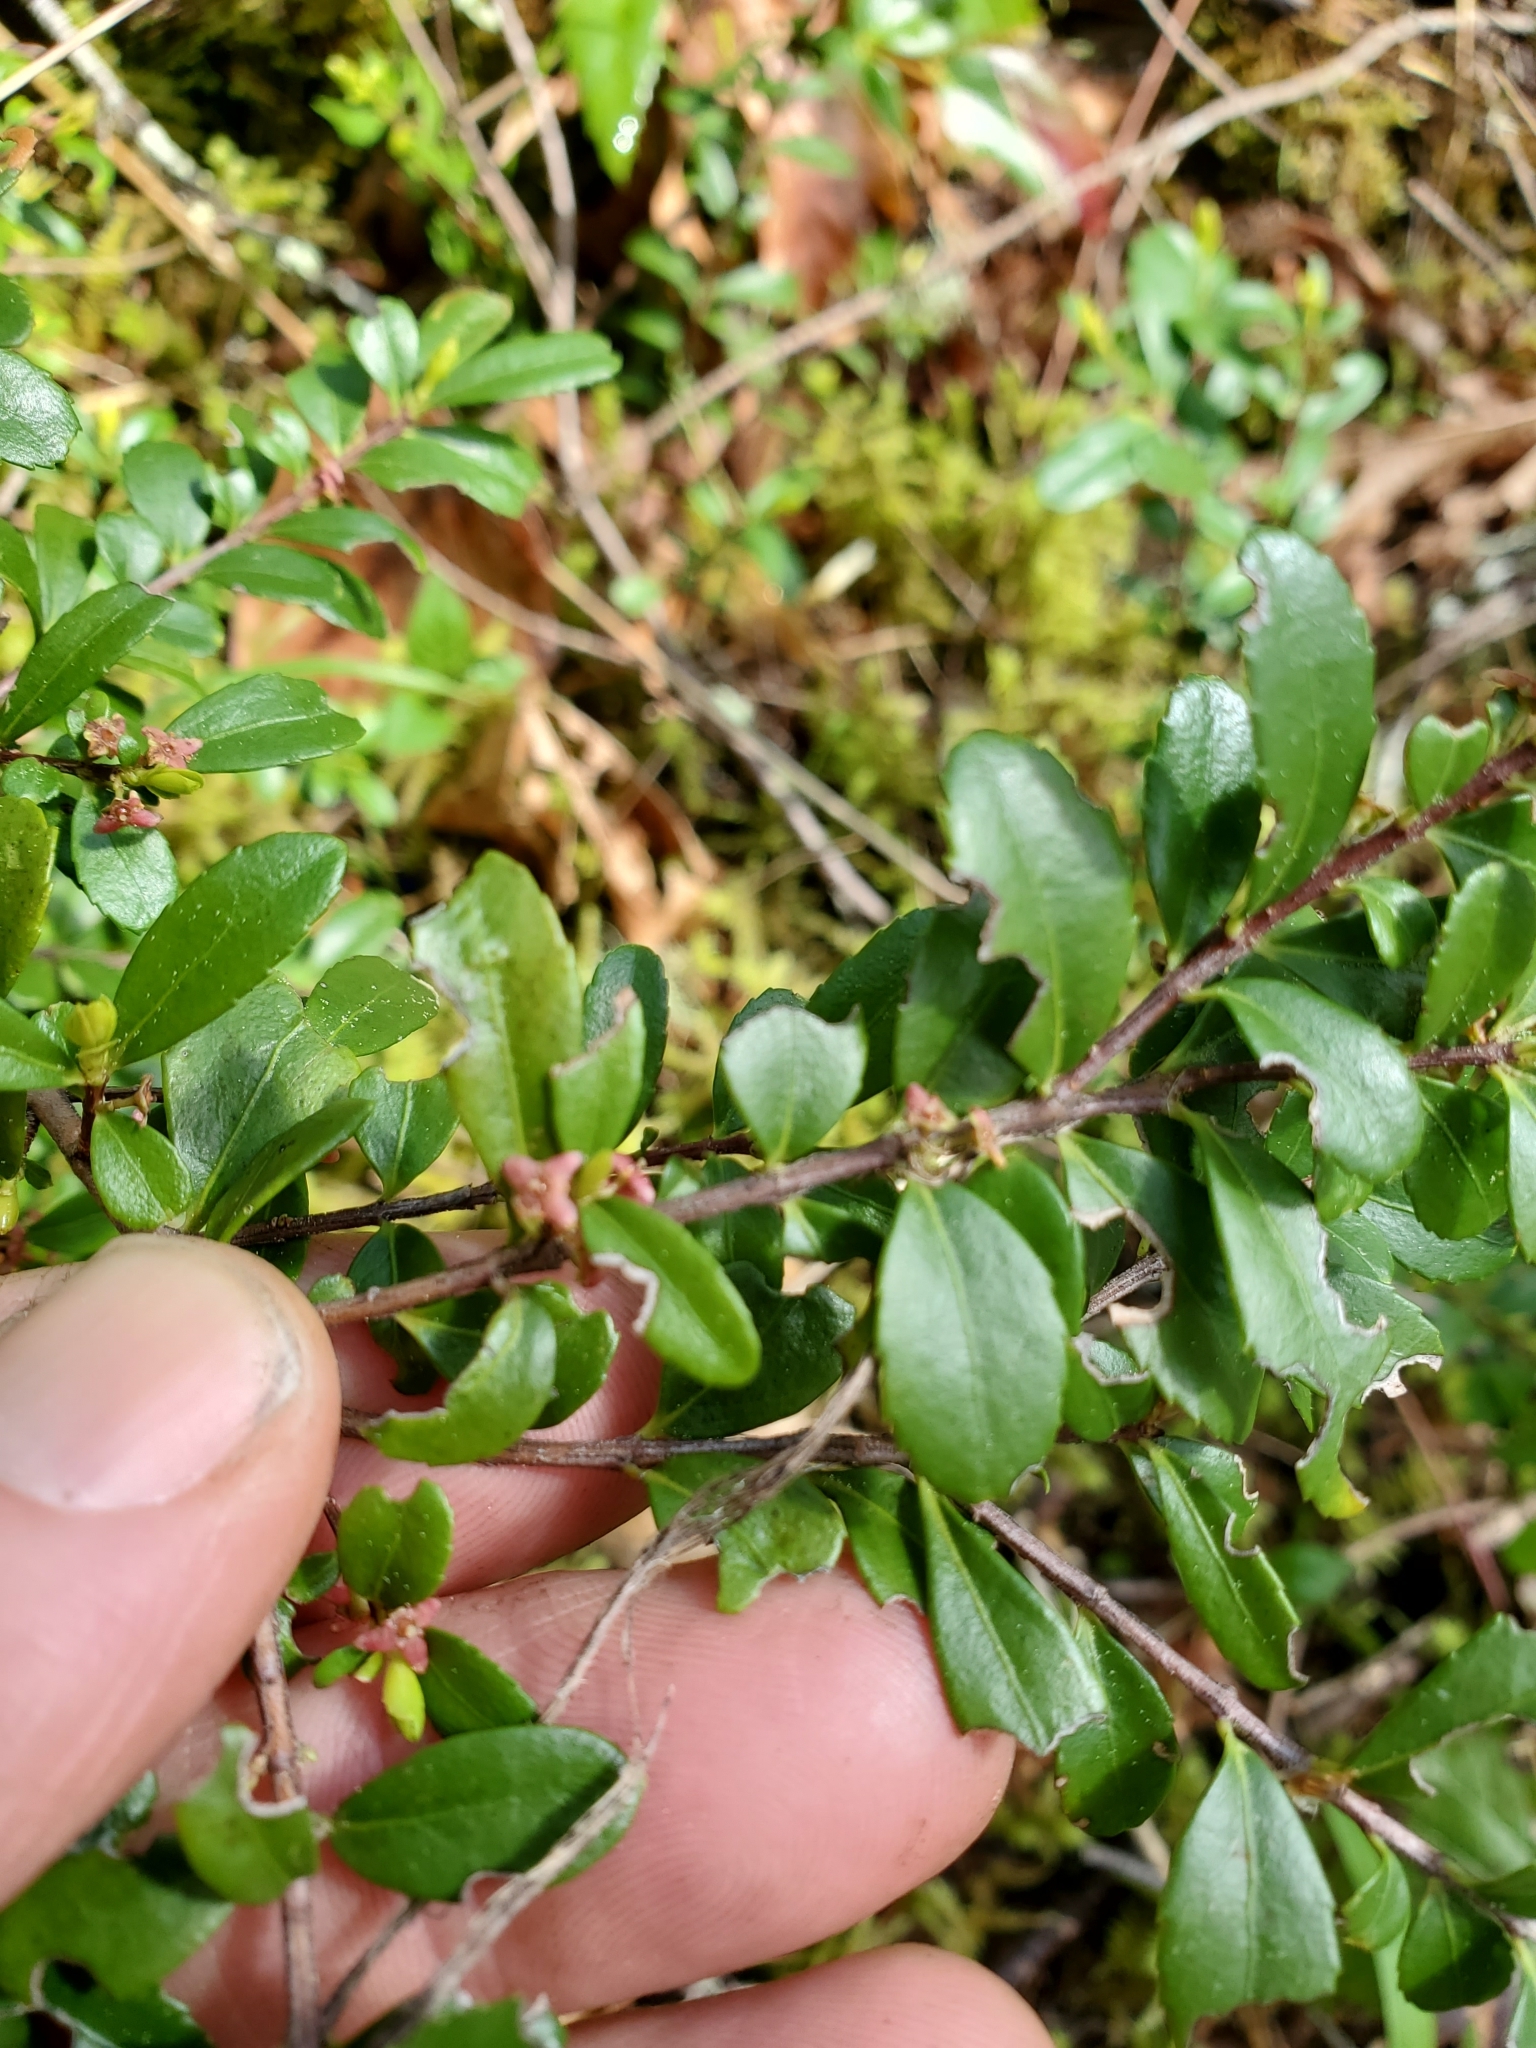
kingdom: Plantae
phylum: Tracheophyta
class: Magnoliopsida
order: Celastrales
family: Celastraceae
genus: Paxistima
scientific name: Paxistima myrsinites
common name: Mountain-lover
